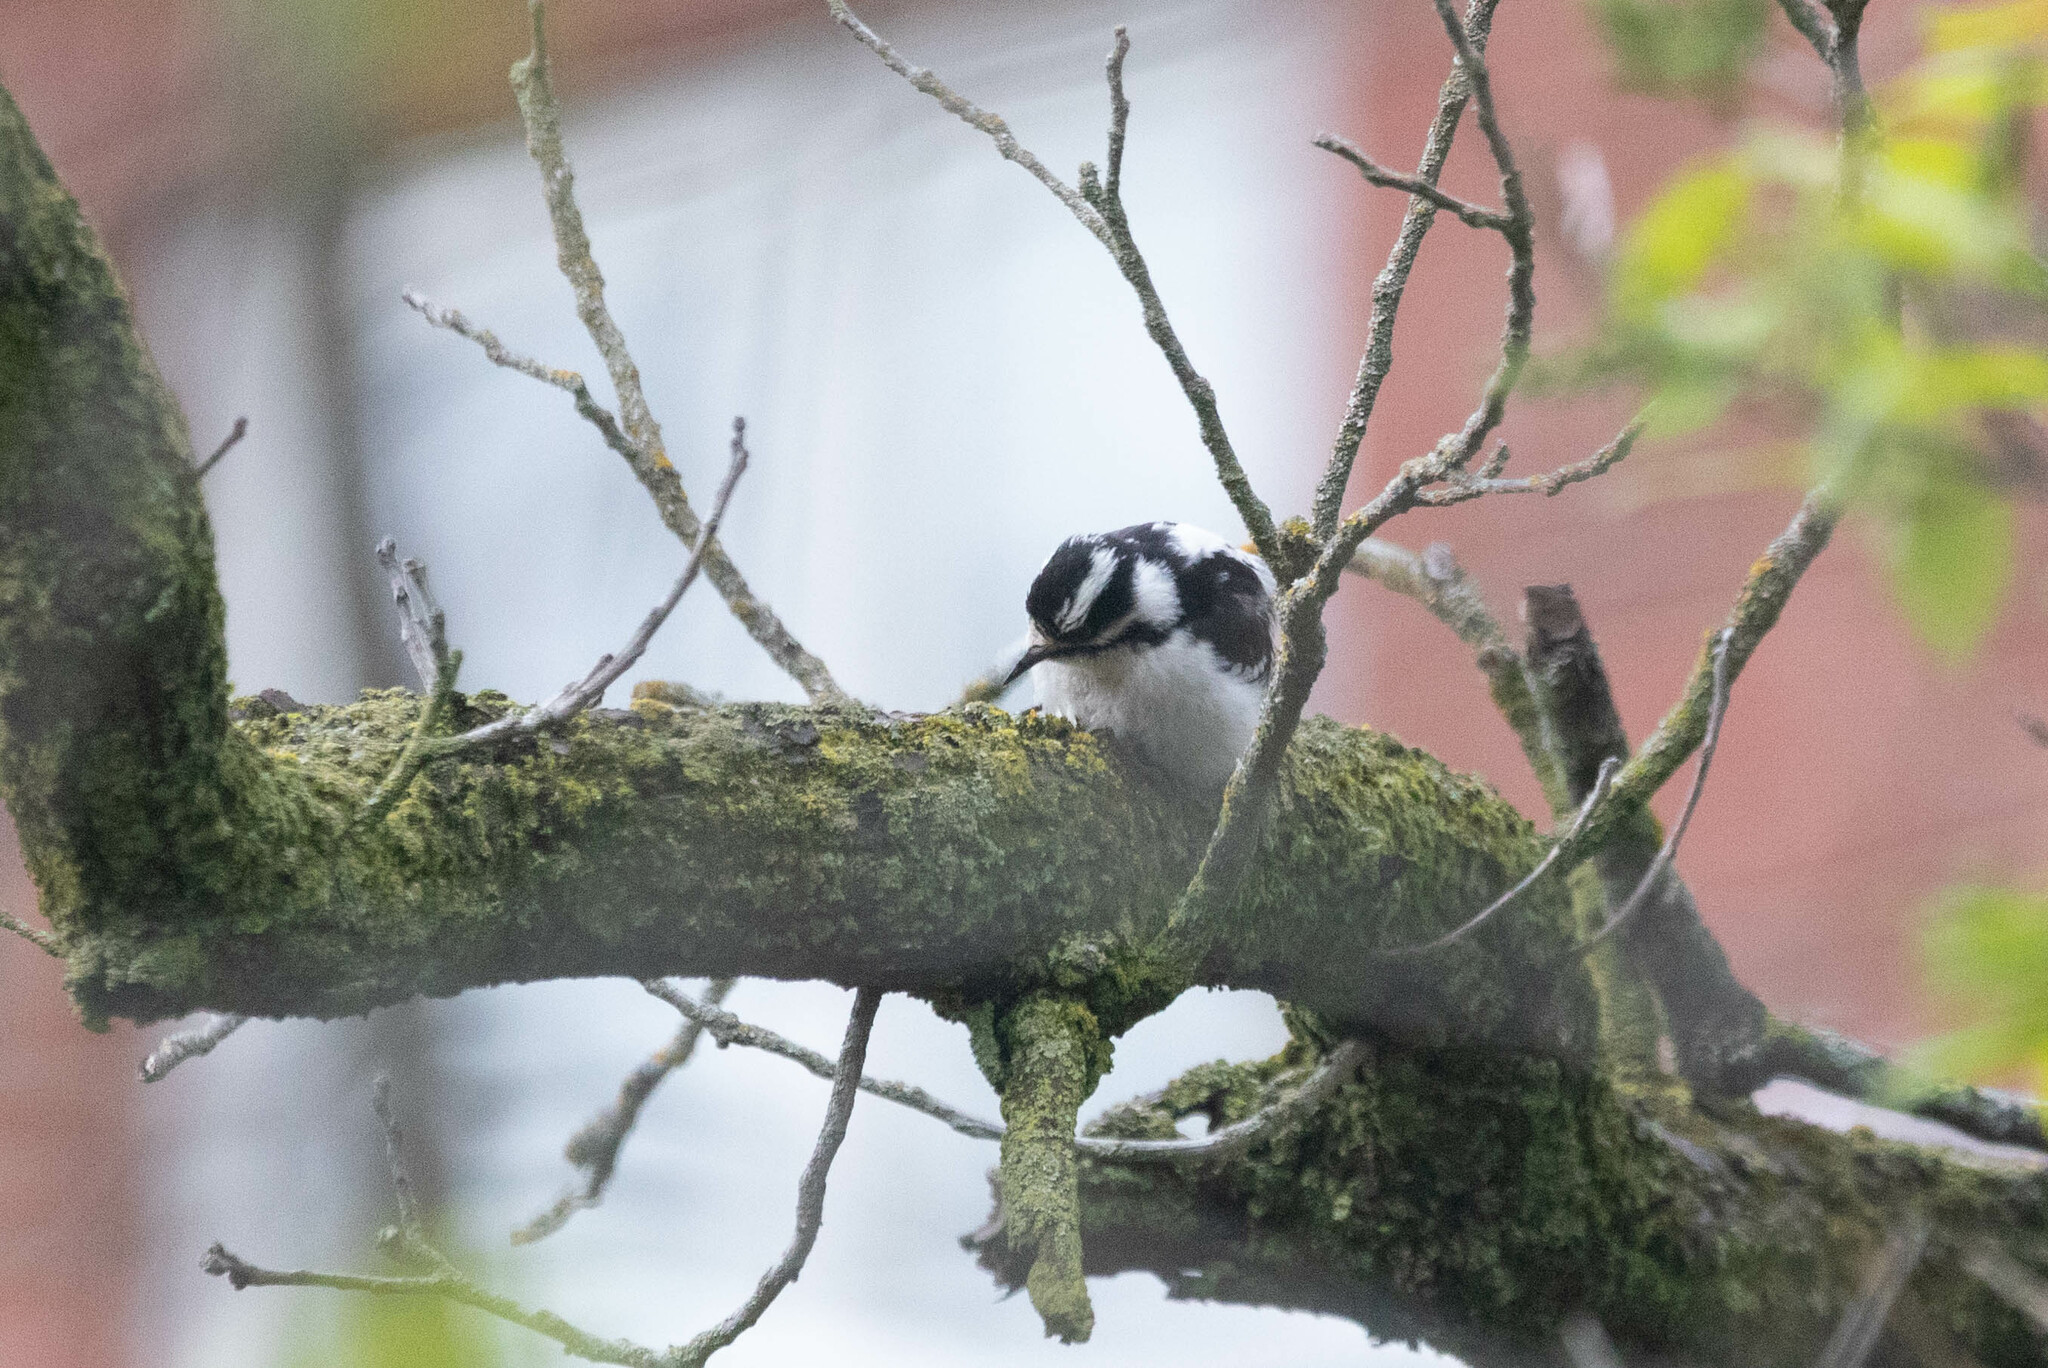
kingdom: Animalia
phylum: Chordata
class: Aves
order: Piciformes
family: Picidae
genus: Dryobates
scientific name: Dryobates pubescens
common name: Downy woodpecker
